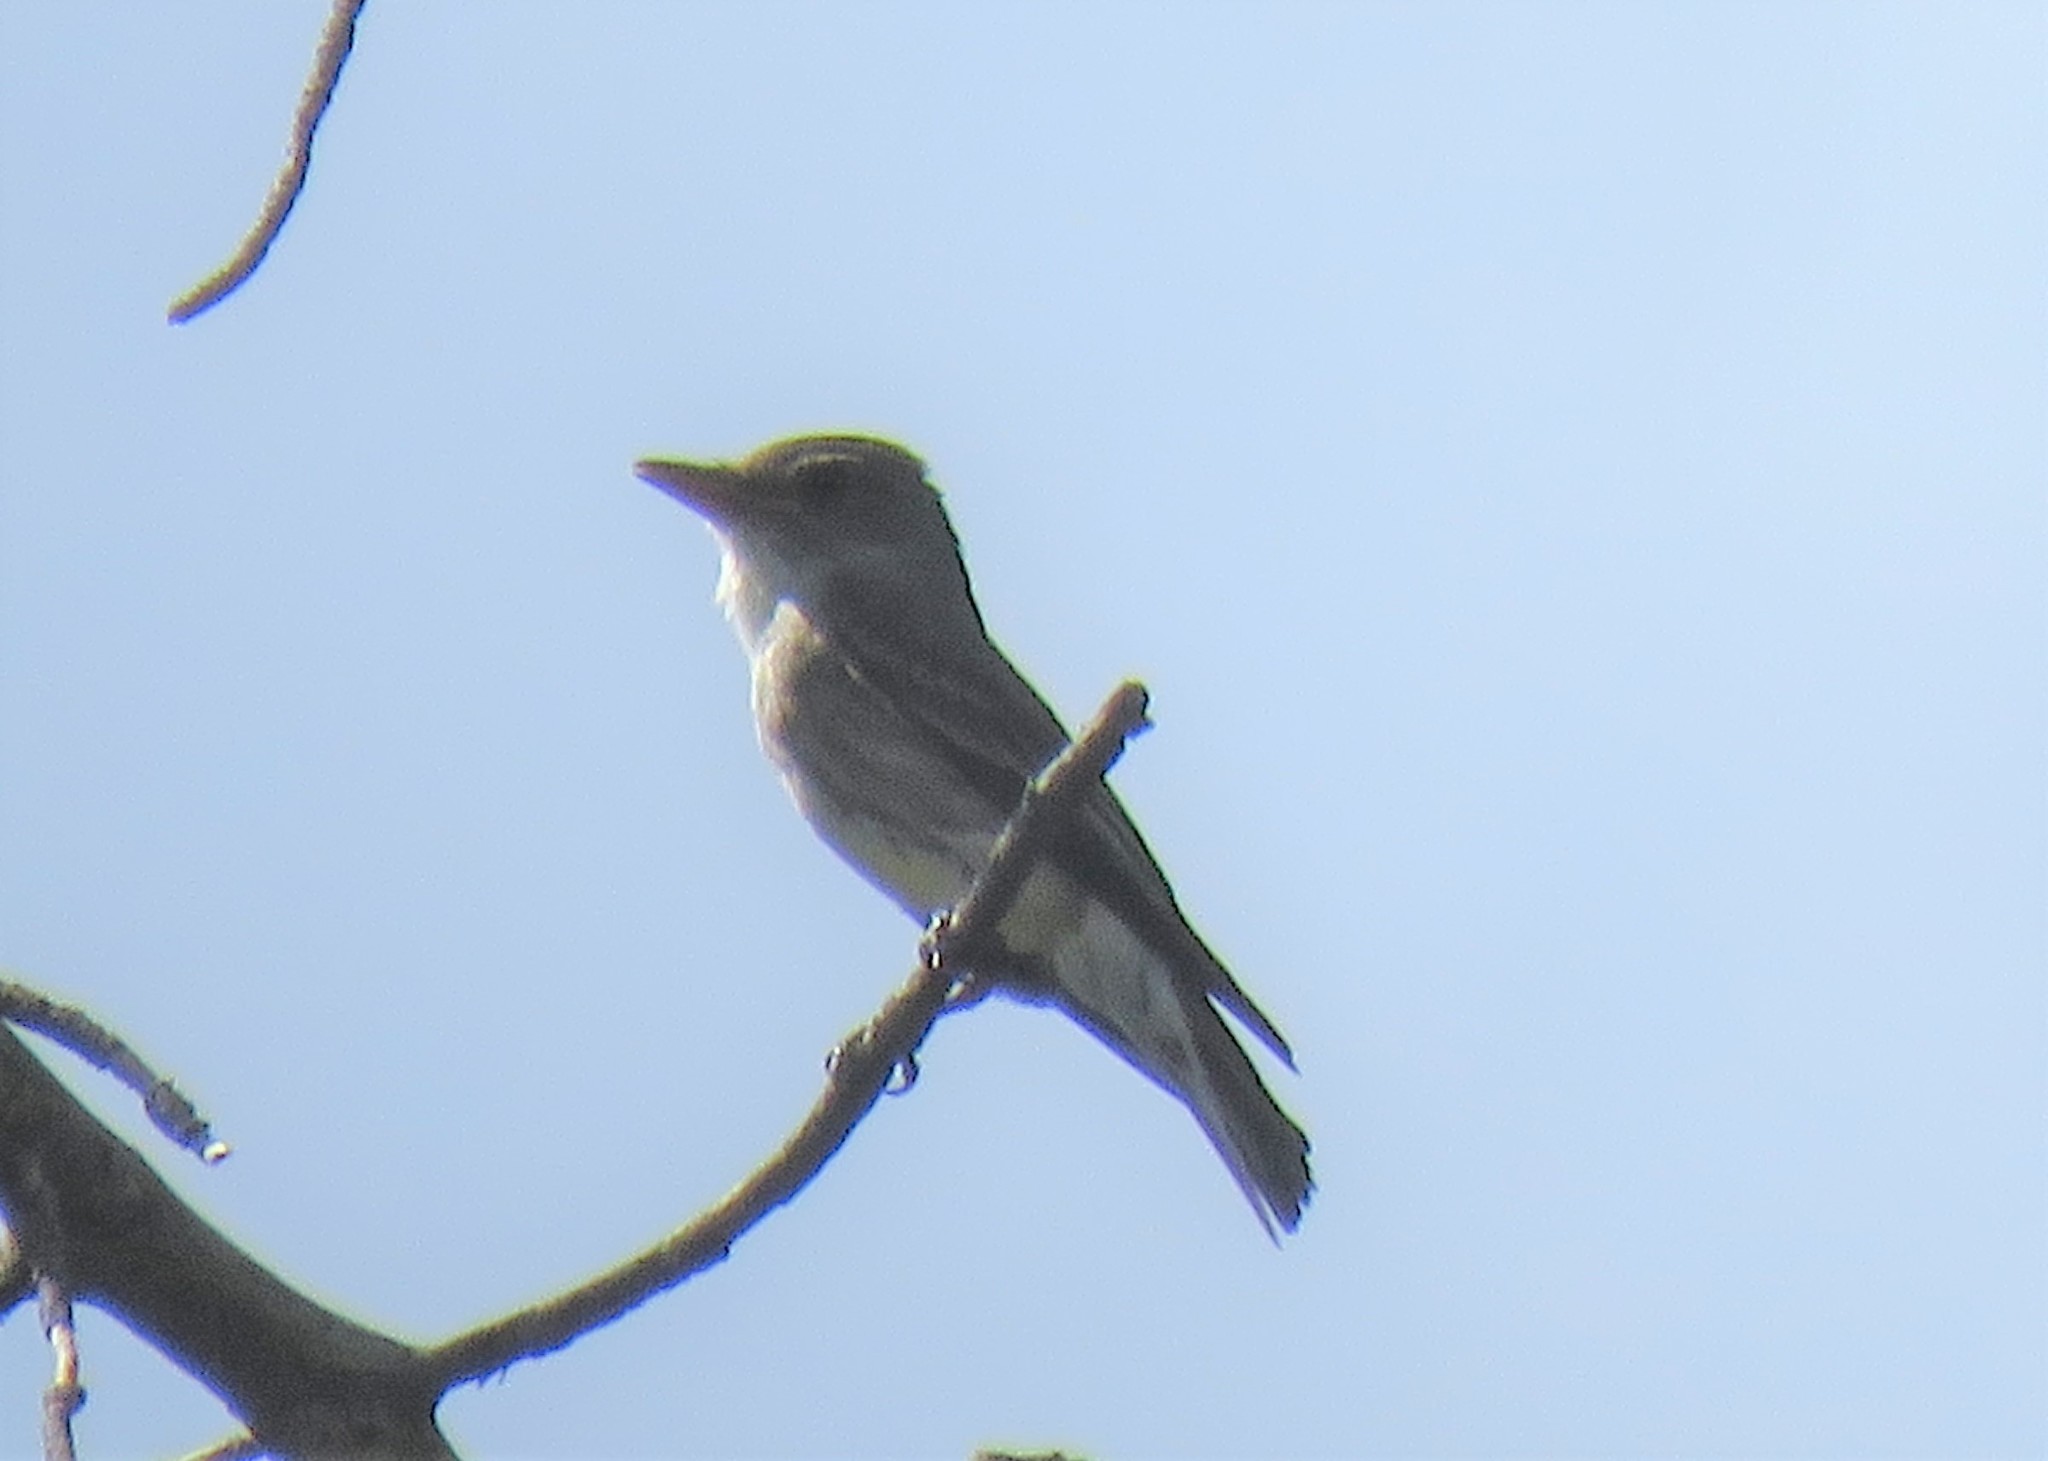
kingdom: Animalia
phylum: Chordata
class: Aves
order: Passeriformes
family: Tyrannidae
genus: Contopus
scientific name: Contopus cooperi
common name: Olive-sided flycatcher
